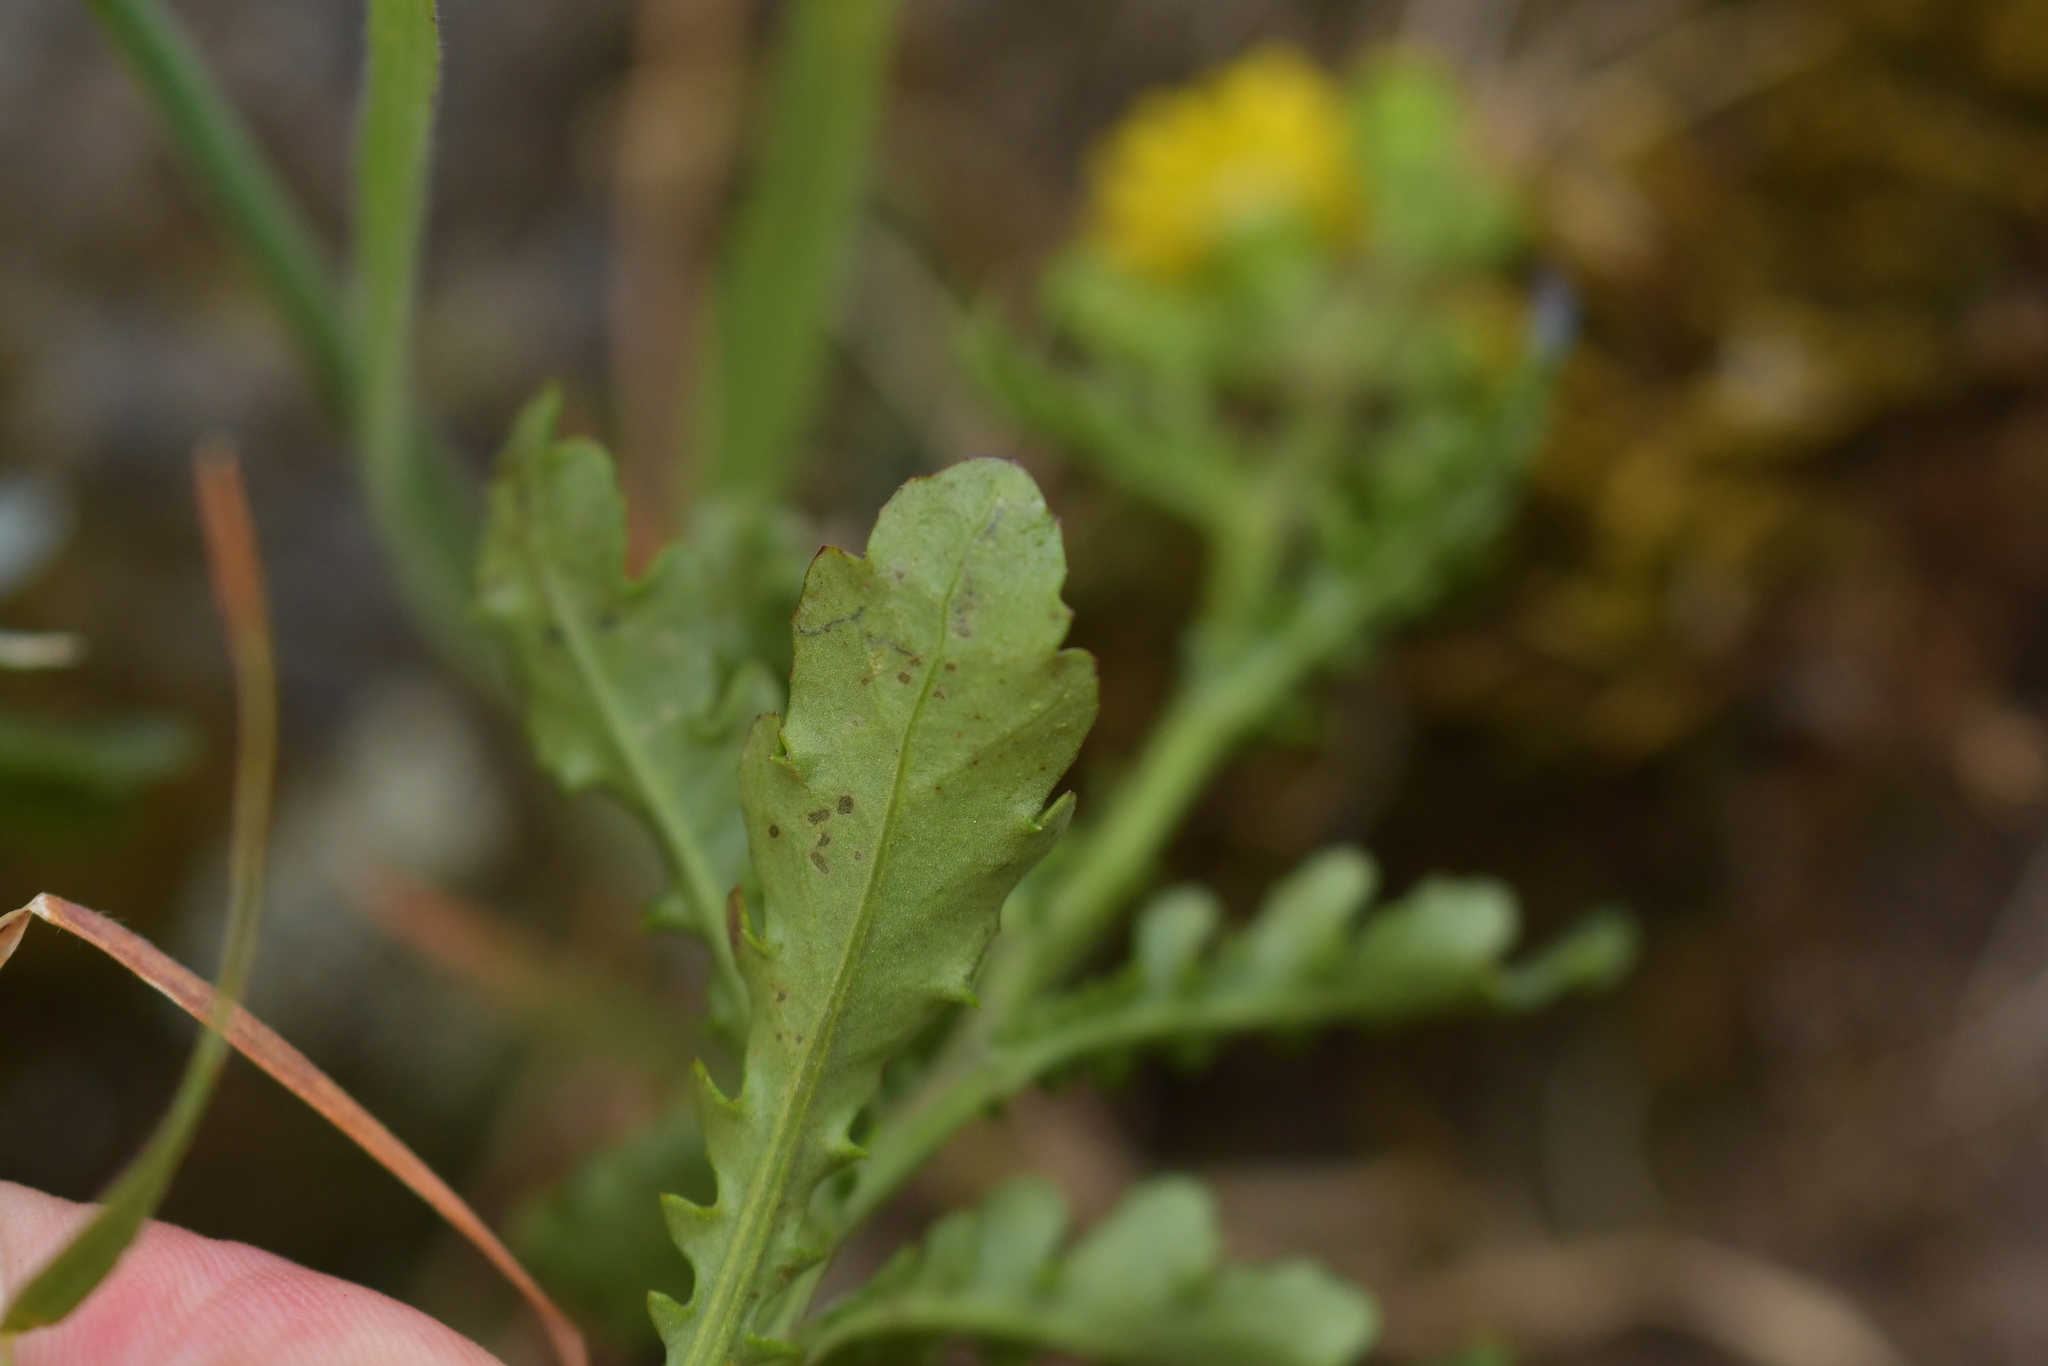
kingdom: Plantae
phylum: Tracheophyta
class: Magnoliopsida
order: Asterales
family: Asteraceae
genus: Senecio
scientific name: Senecio matatini
